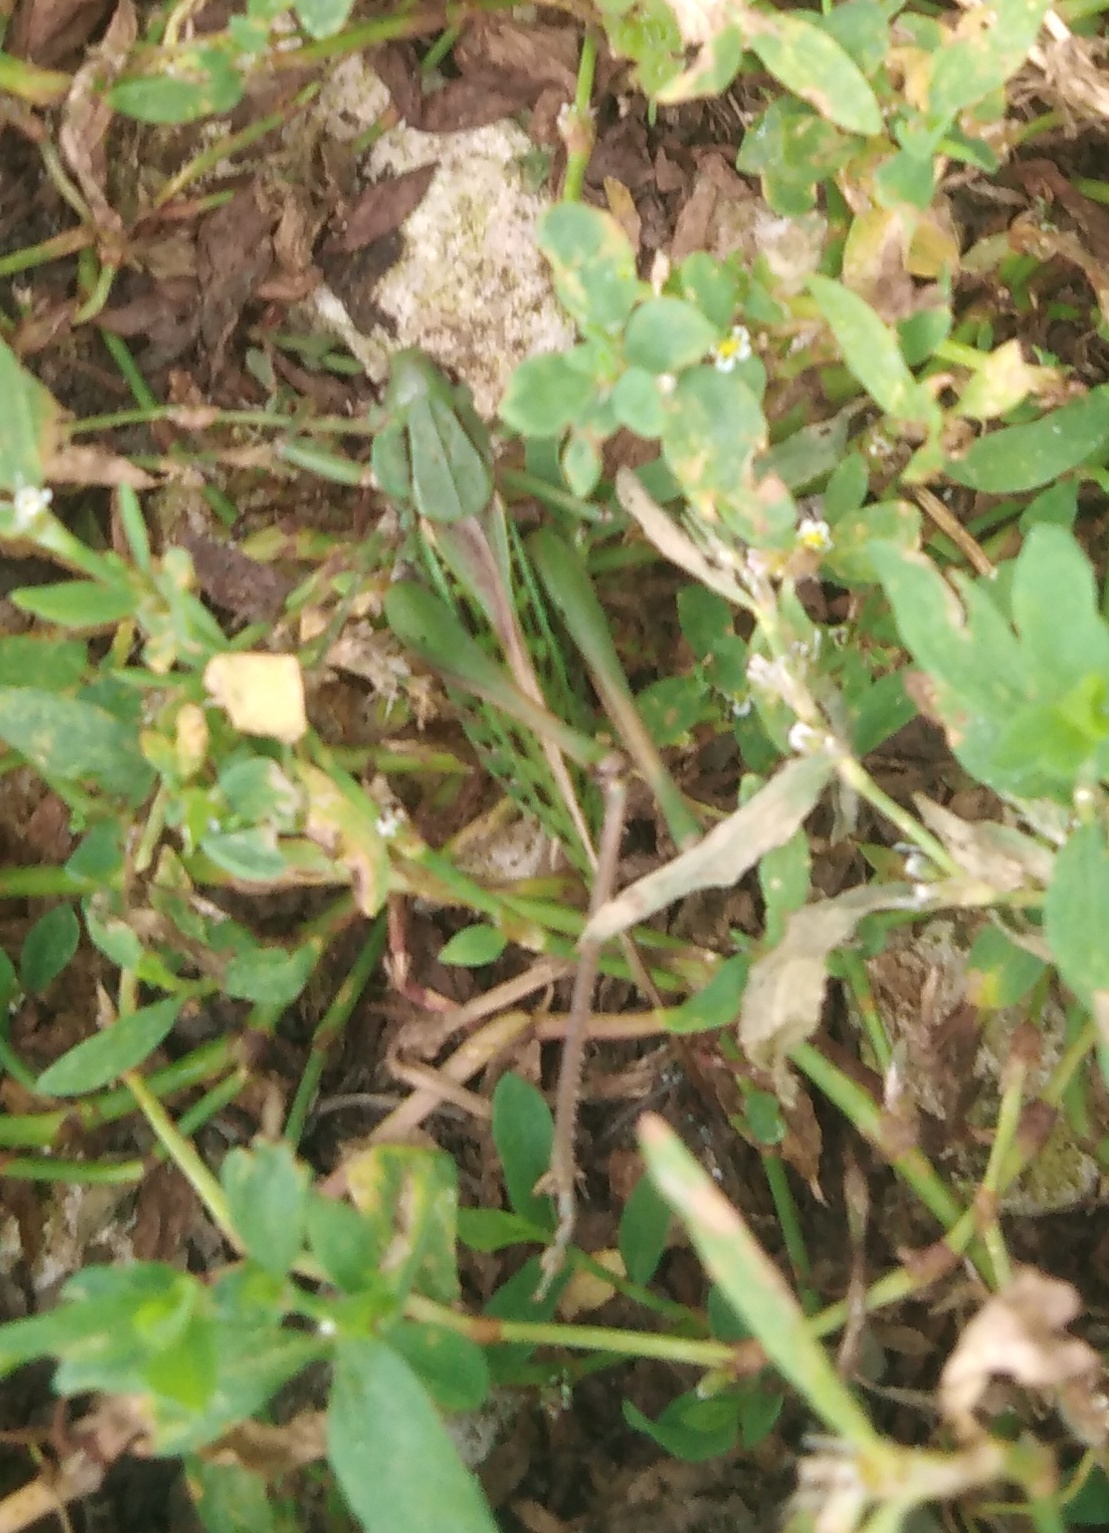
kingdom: Animalia
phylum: Arthropoda
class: Insecta
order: Orthoptera
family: Tettigoniidae
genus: Decticus
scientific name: Decticus verrucivorus
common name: Wart-biter
